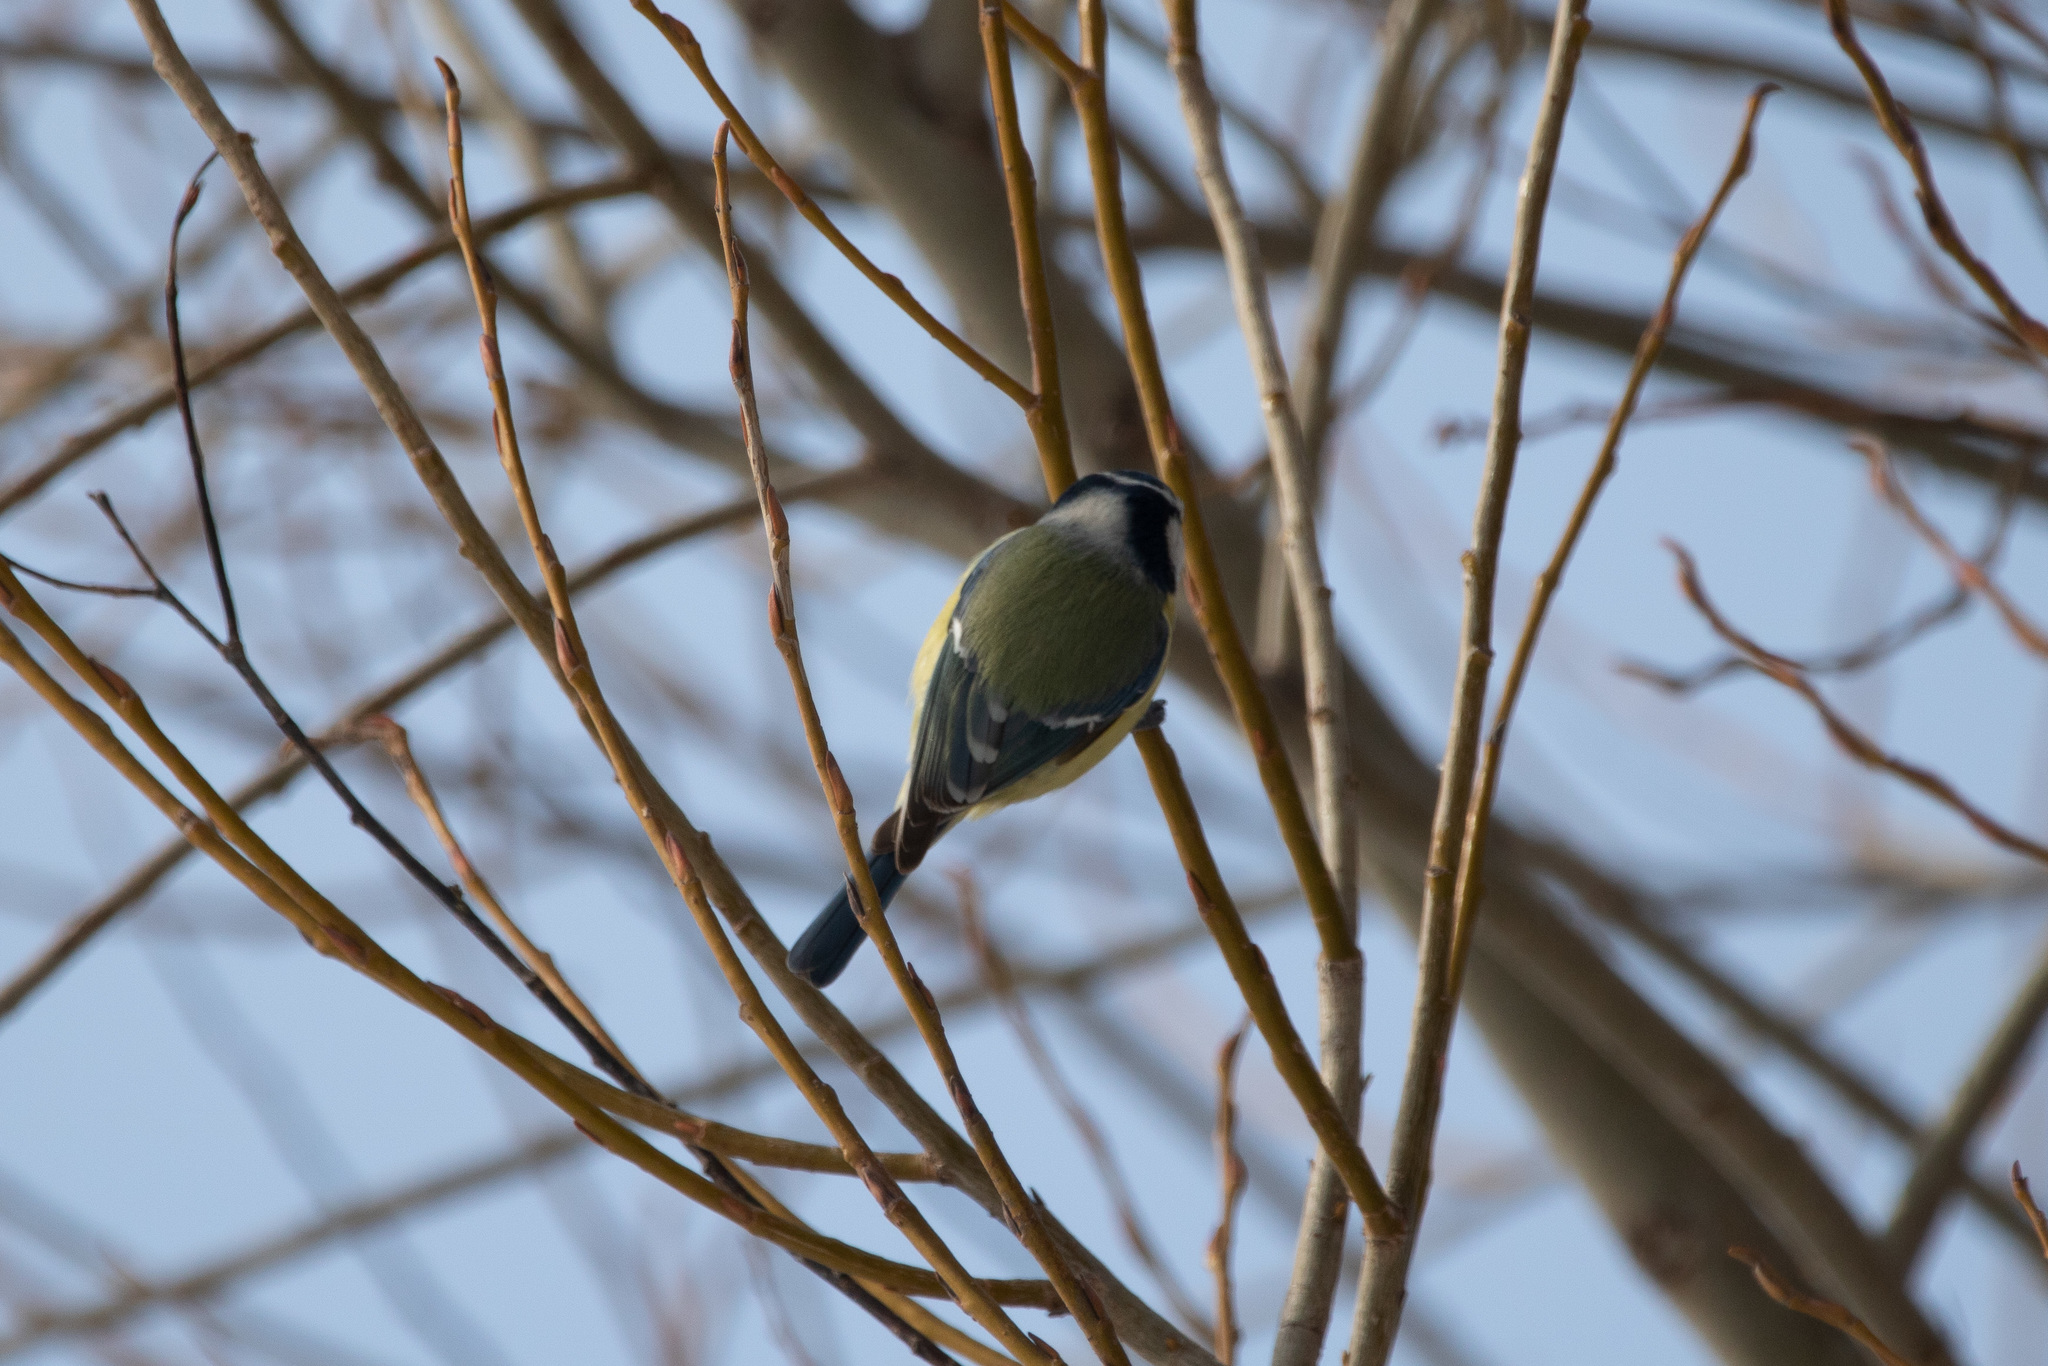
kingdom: Animalia
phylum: Chordata
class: Aves
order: Passeriformes
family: Paridae
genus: Cyanistes
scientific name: Cyanistes caeruleus
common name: Eurasian blue tit
